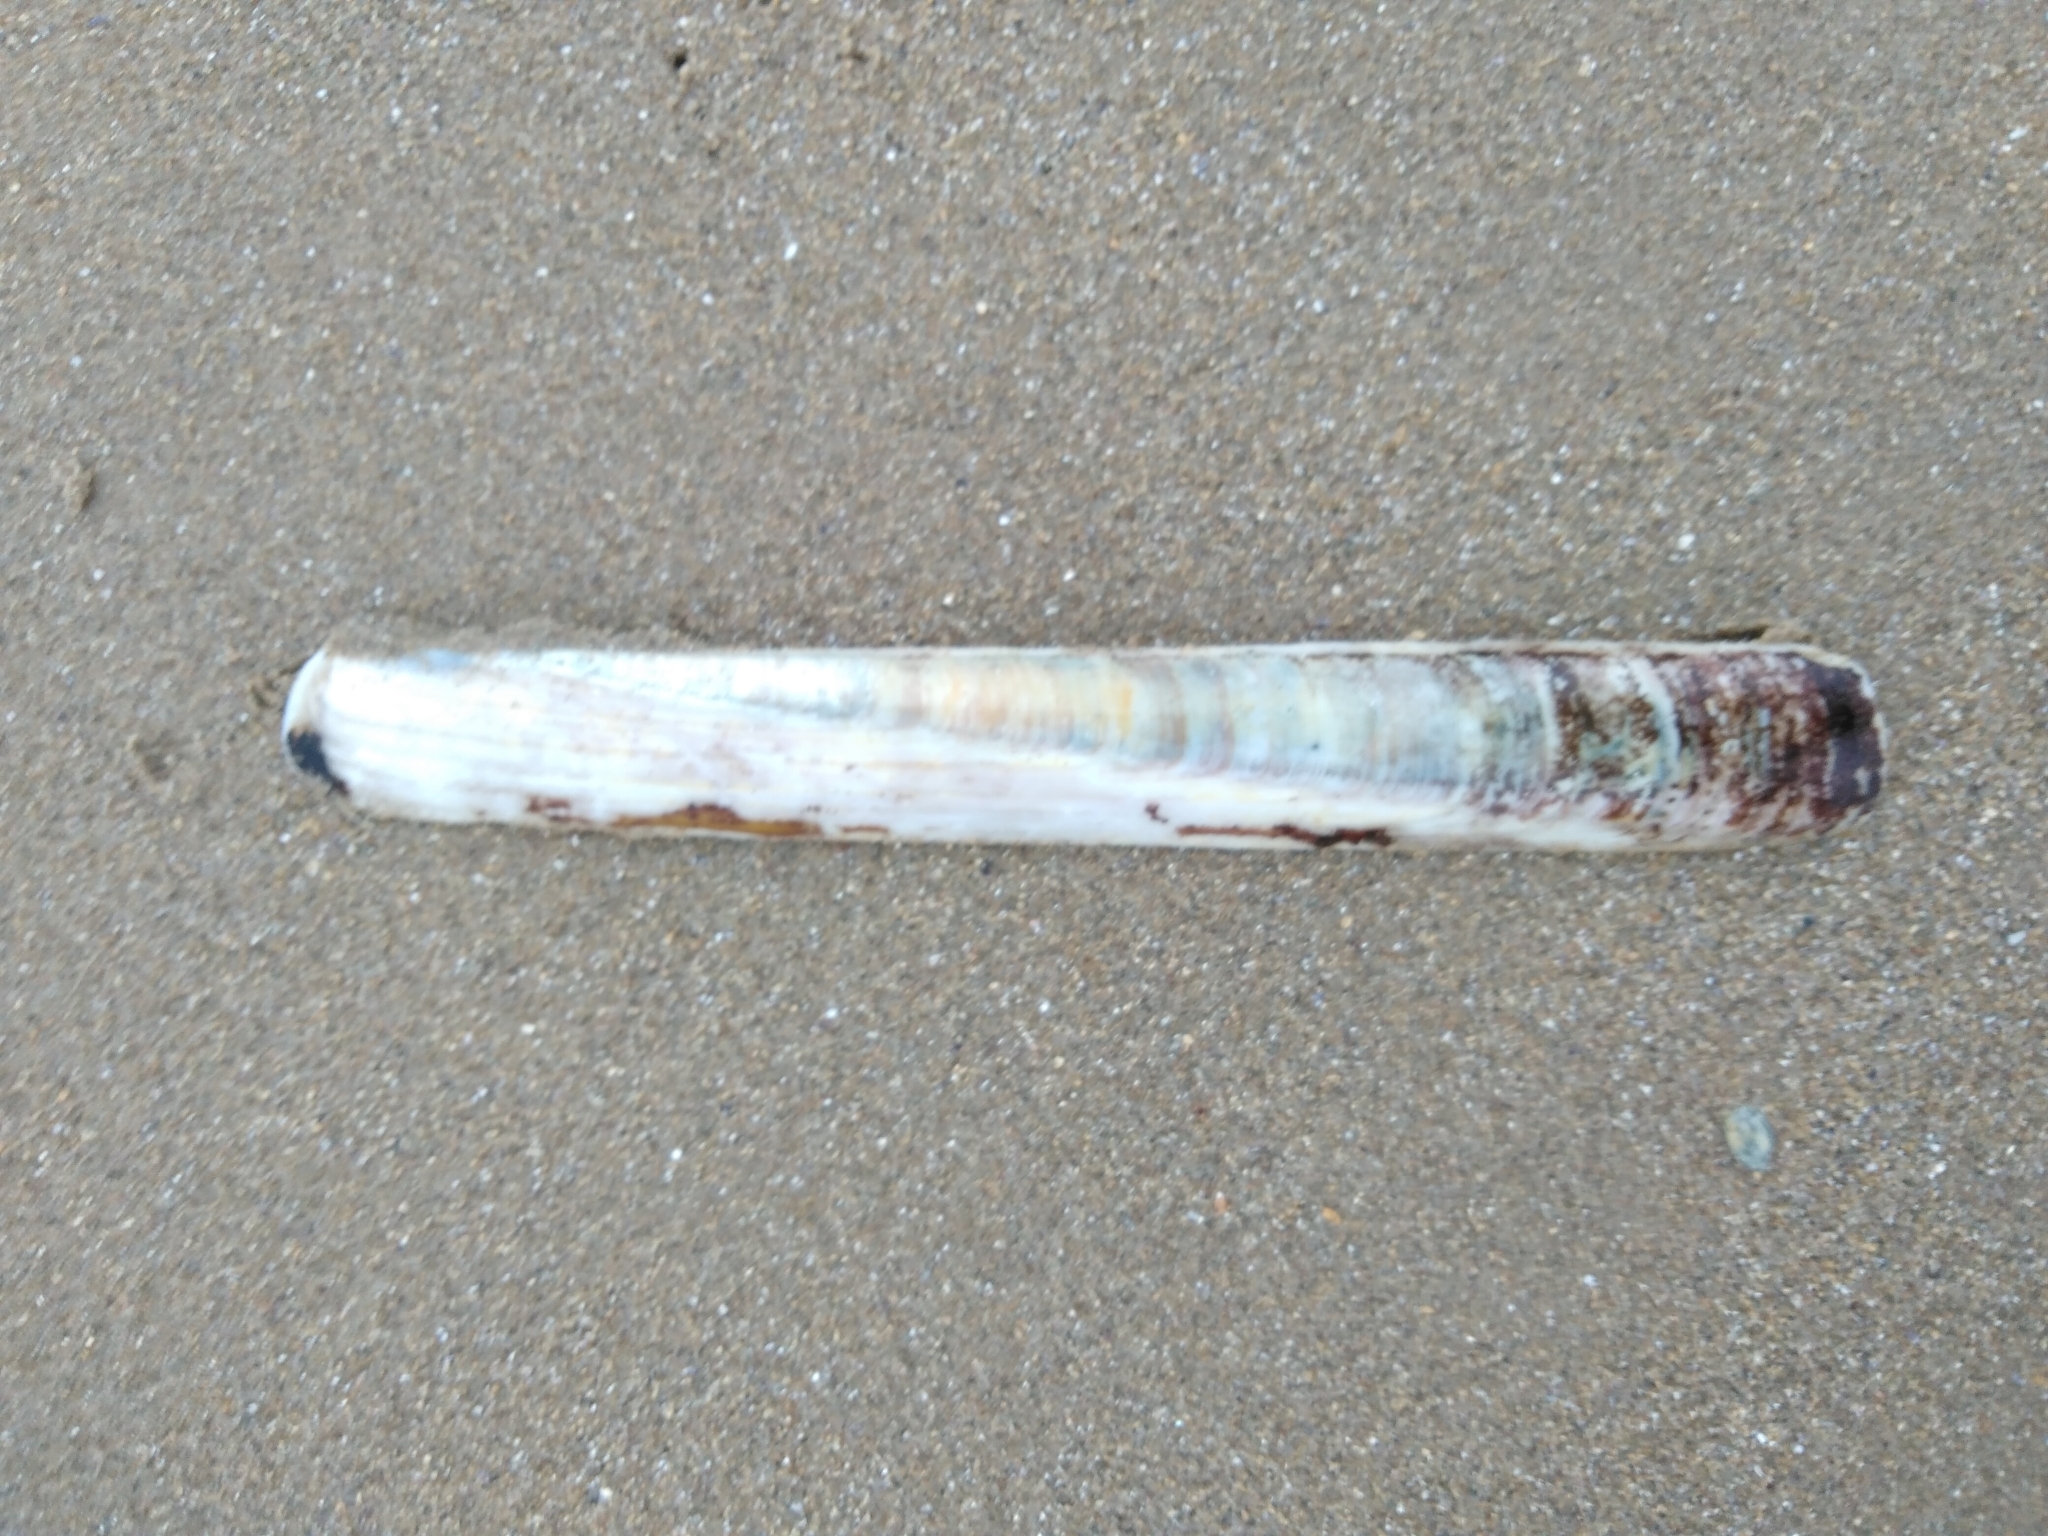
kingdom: Animalia
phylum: Mollusca
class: Bivalvia
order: Adapedonta
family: Pharidae
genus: Ensis
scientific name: Ensis siliqua
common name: Pod razor shell
